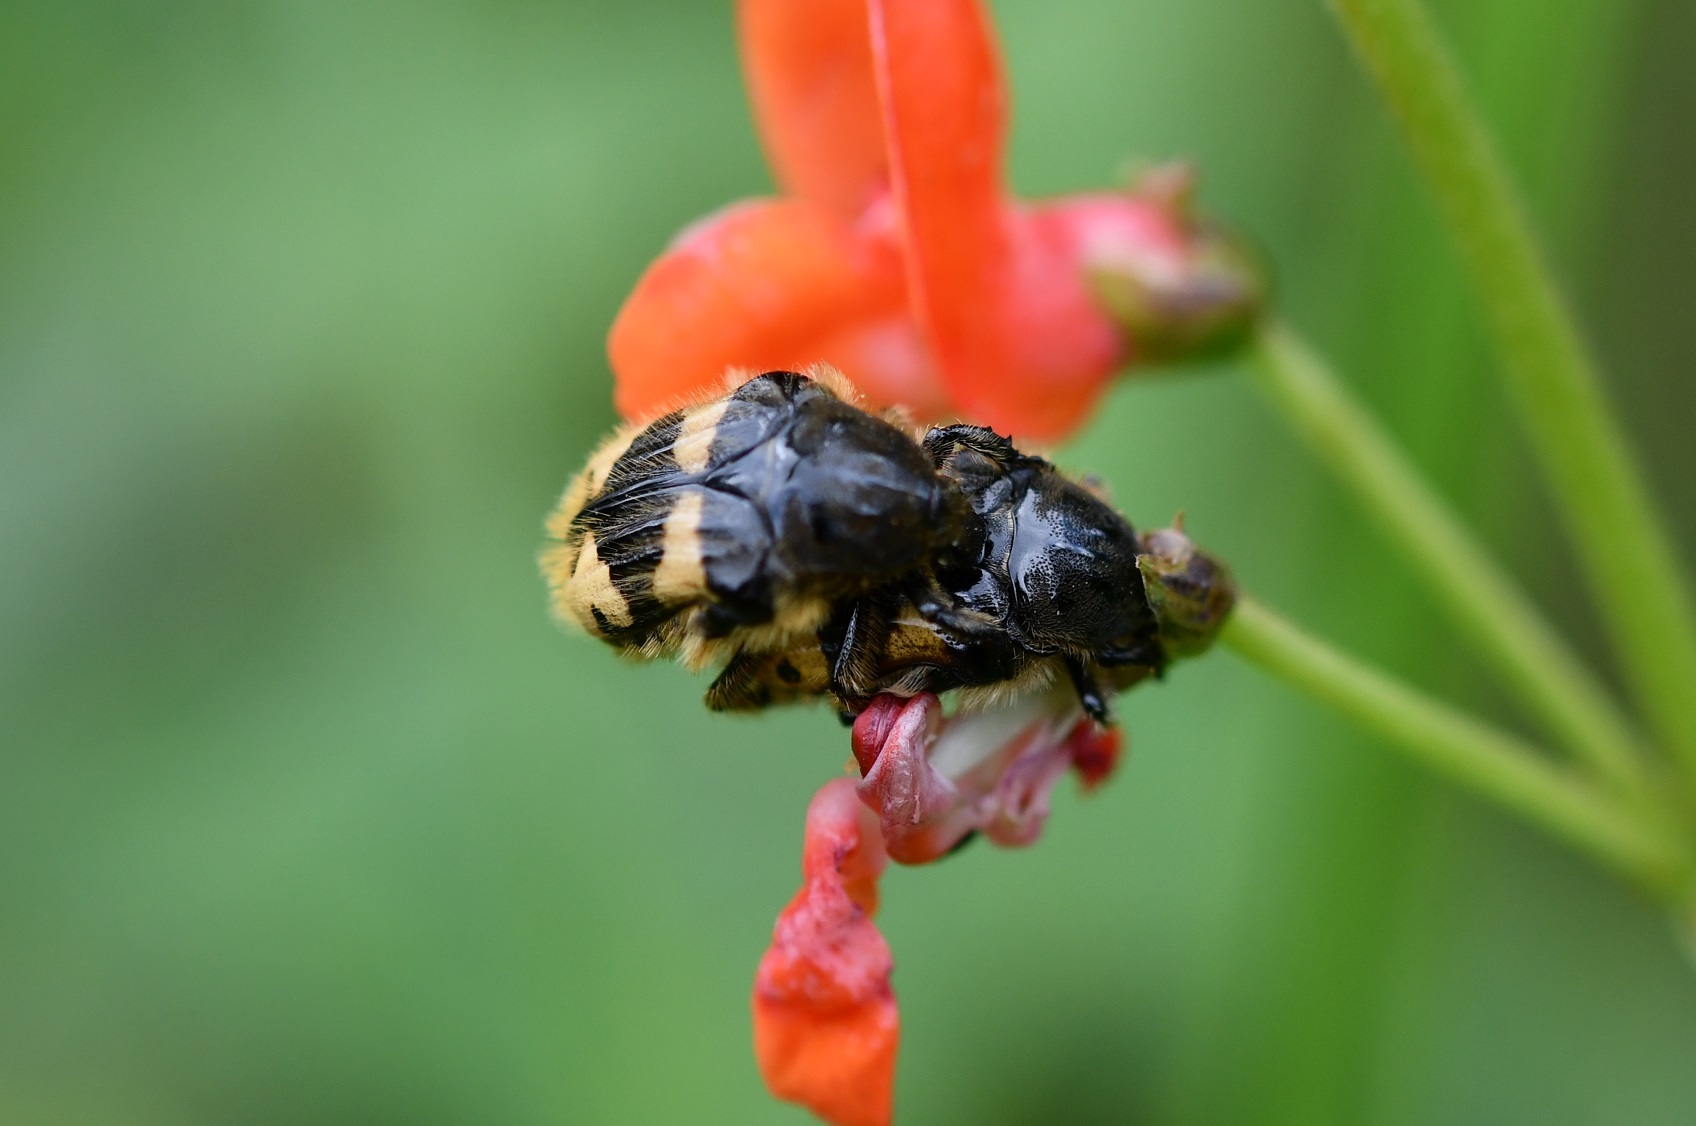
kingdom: Animalia
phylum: Arthropoda
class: Insecta
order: Coleoptera
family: Scarabaeidae
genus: Euphoria
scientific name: Euphoria basalis
